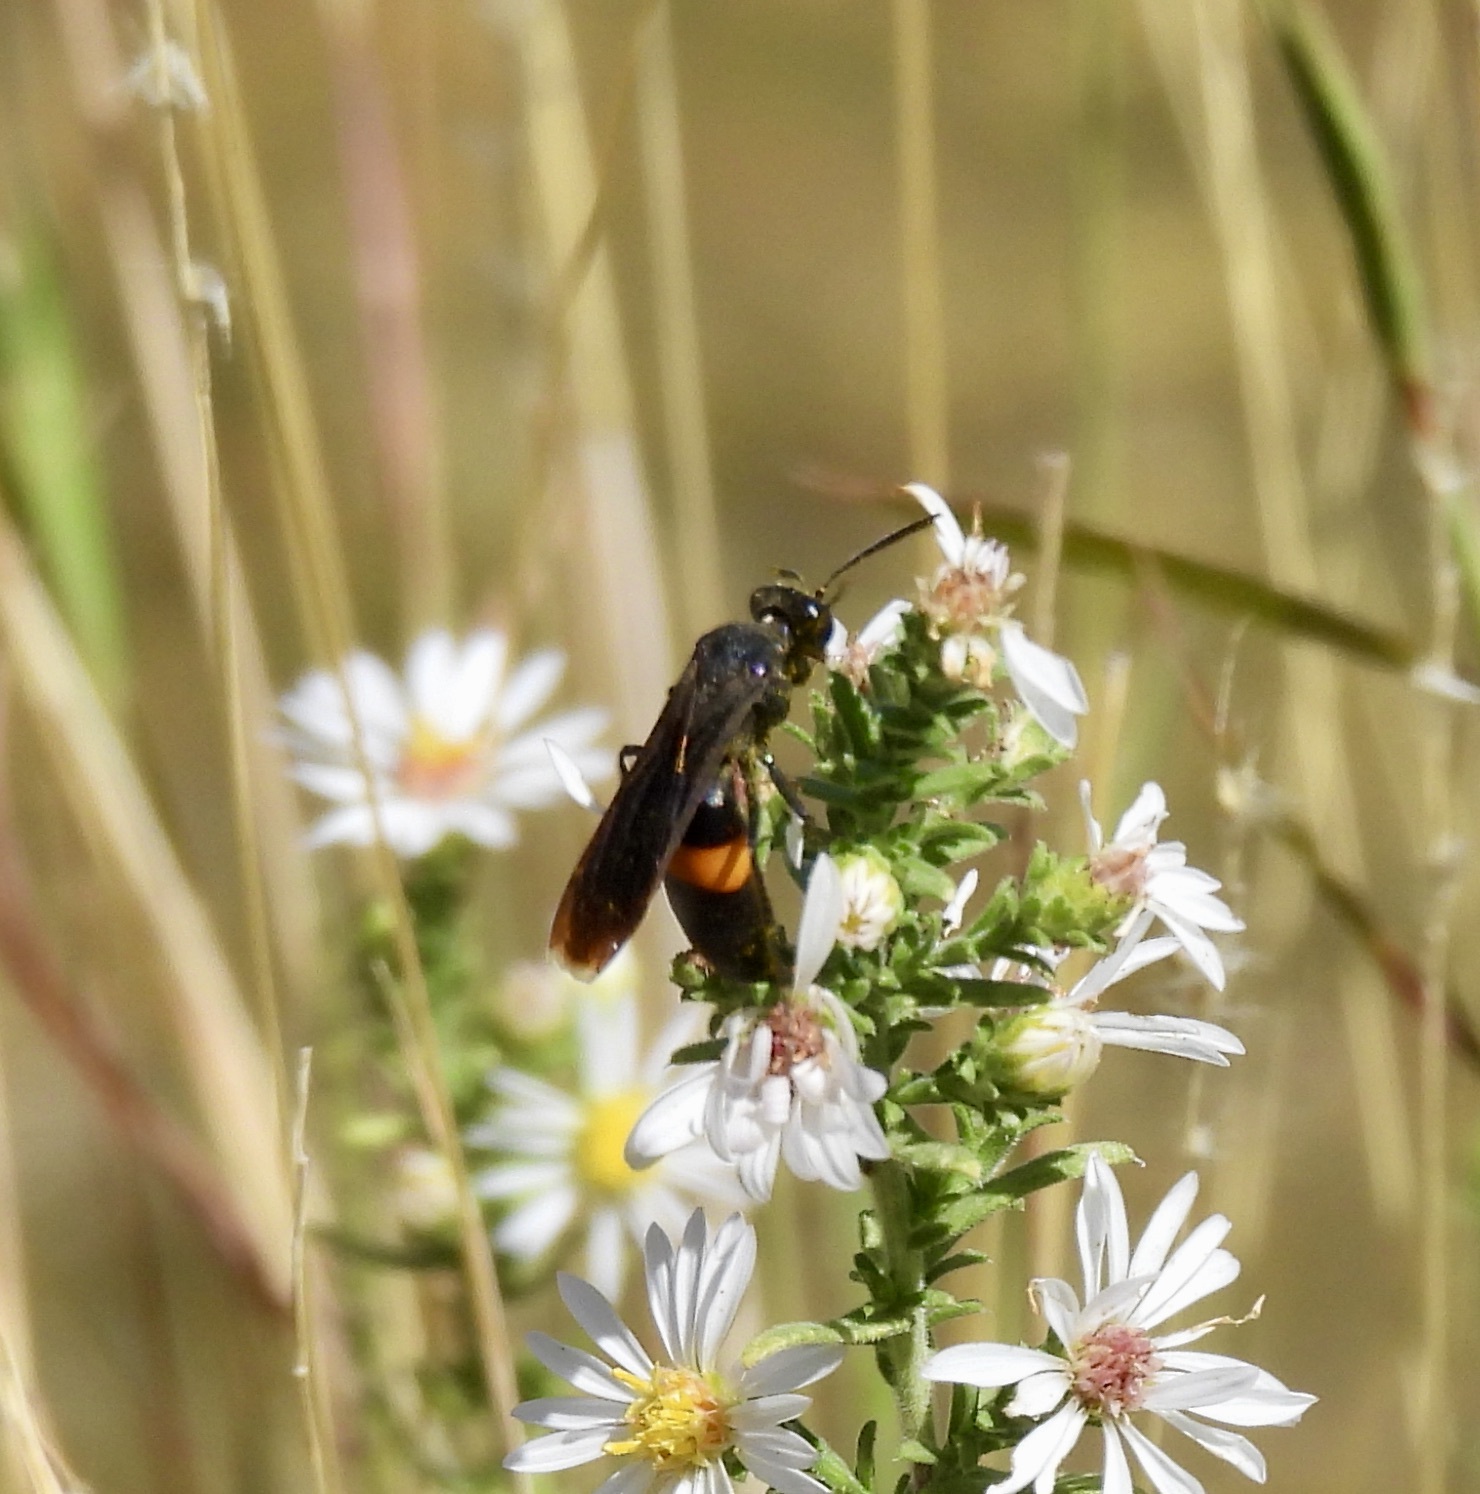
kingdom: Animalia
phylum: Arthropoda
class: Insecta
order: Hymenoptera
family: Crabronidae
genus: Stizoides
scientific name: Stizoides renicinctus
